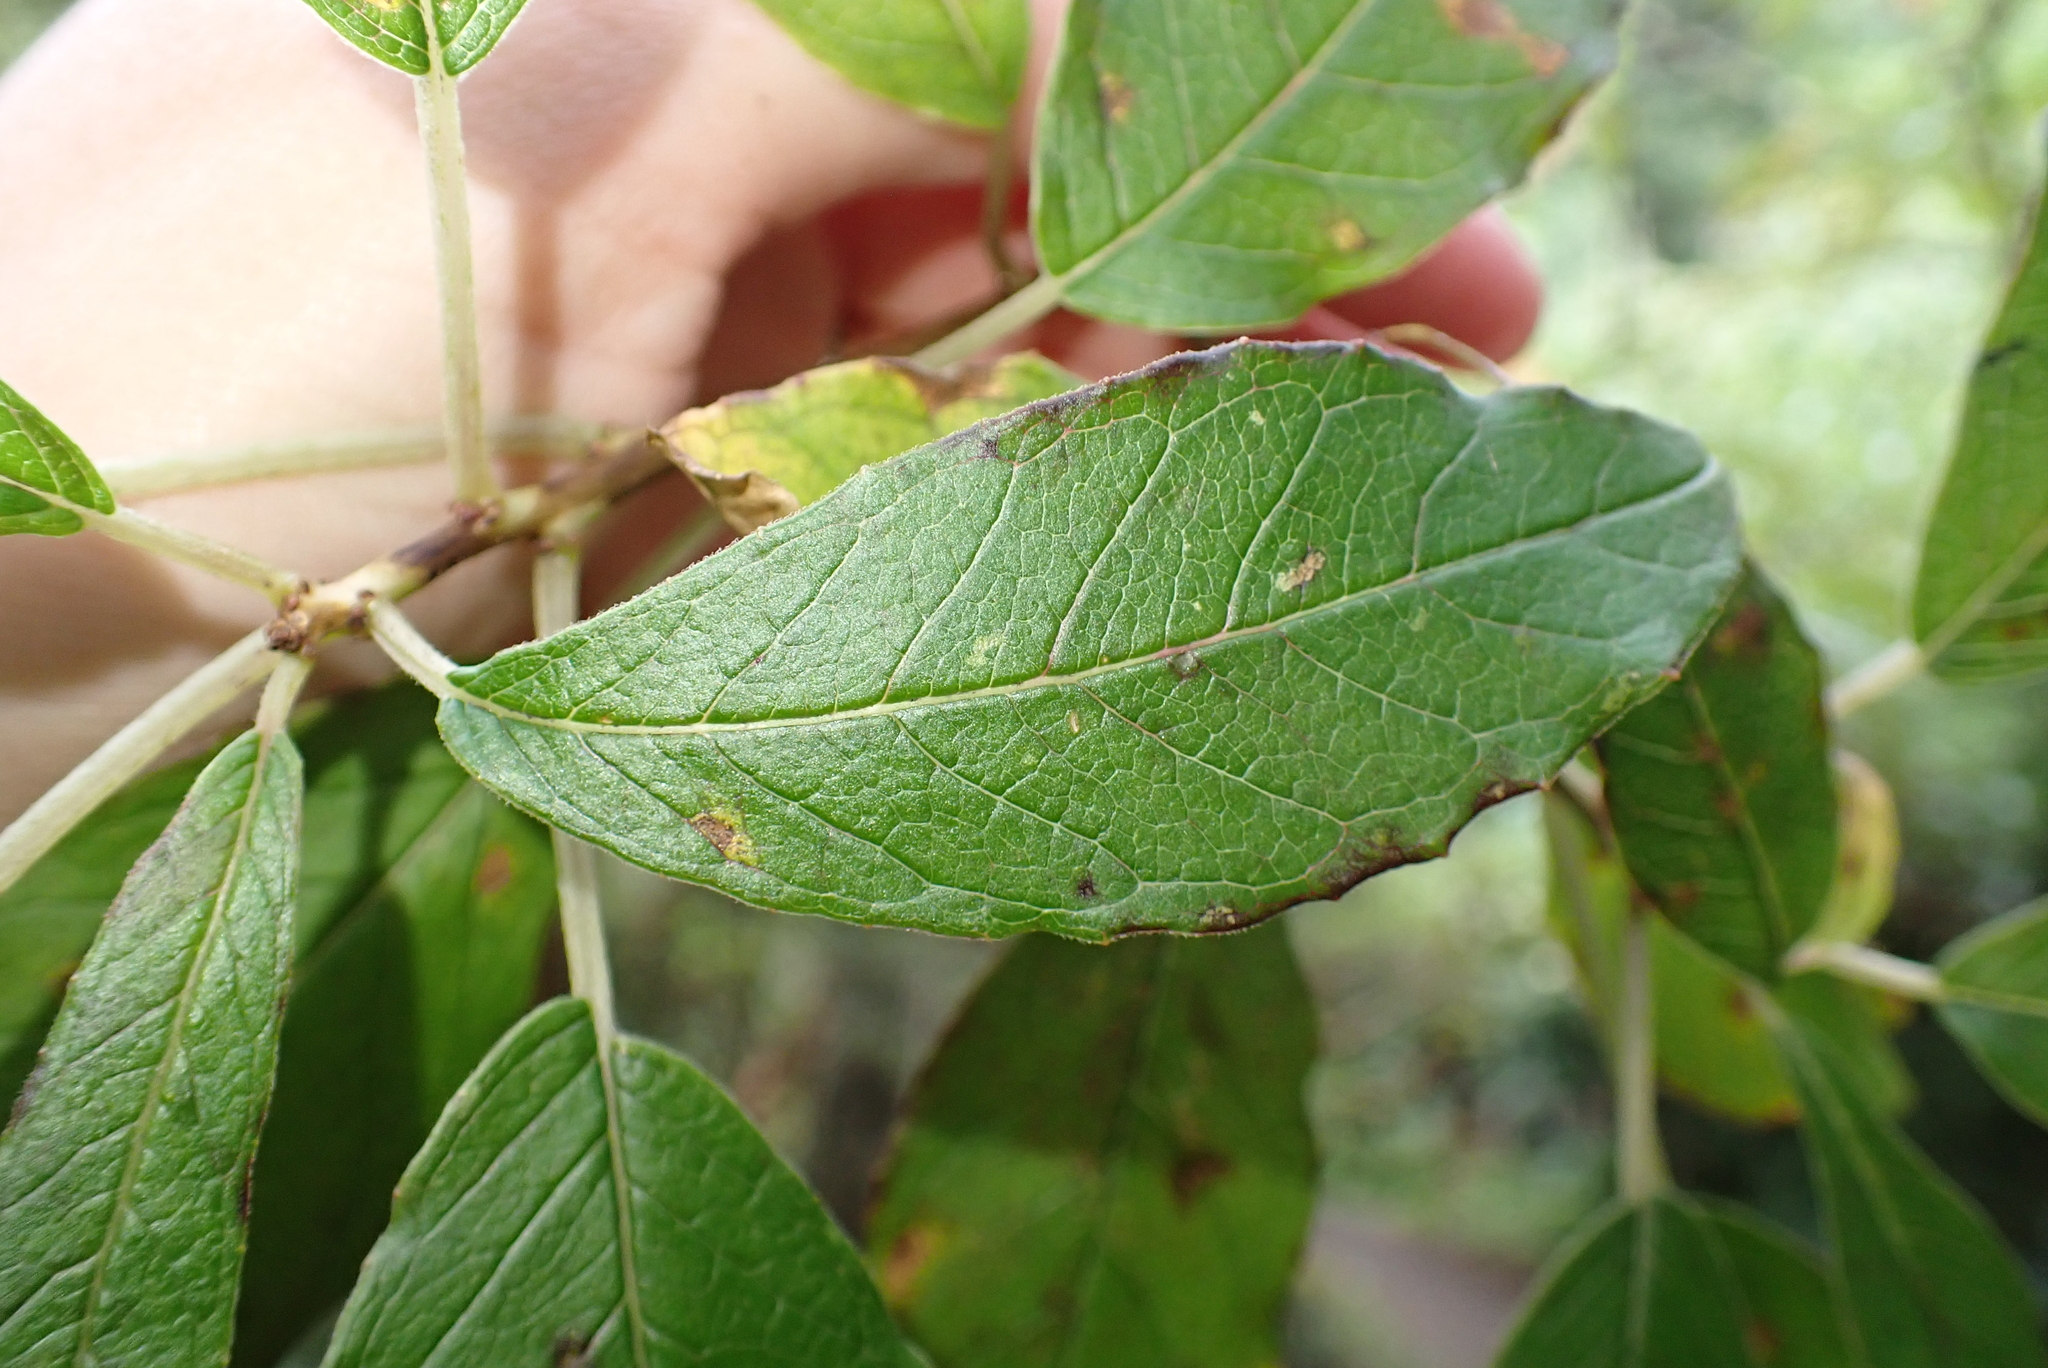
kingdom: Plantae
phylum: Tracheophyta
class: Magnoliopsida
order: Myrtales
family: Onagraceae
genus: Fuchsia
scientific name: Fuchsia excorticata
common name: Tree fuchsia
